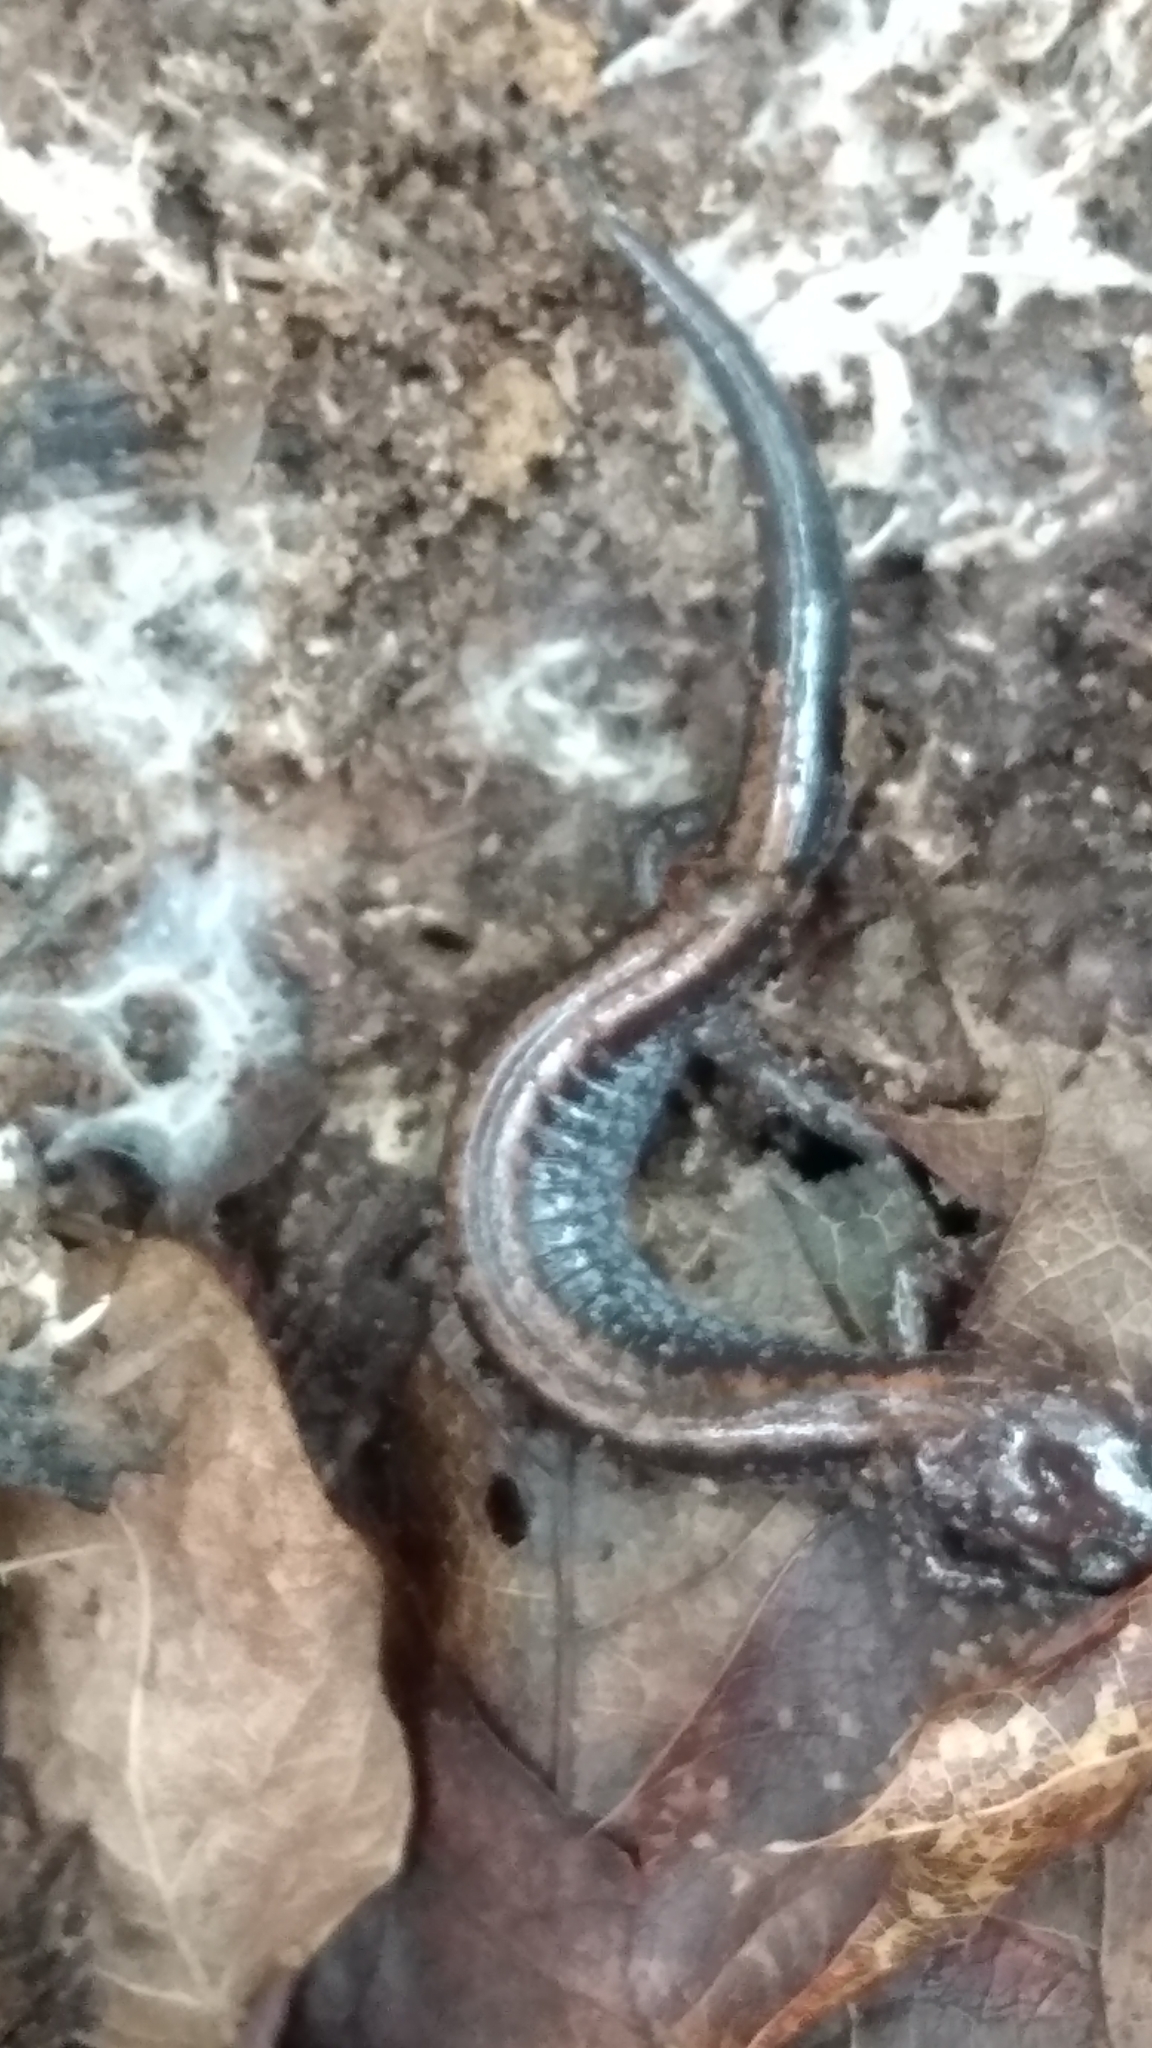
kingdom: Animalia
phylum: Chordata
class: Amphibia
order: Caudata
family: Plethodontidae
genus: Plethodon
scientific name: Plethodon cinereus
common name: Redback salamander
